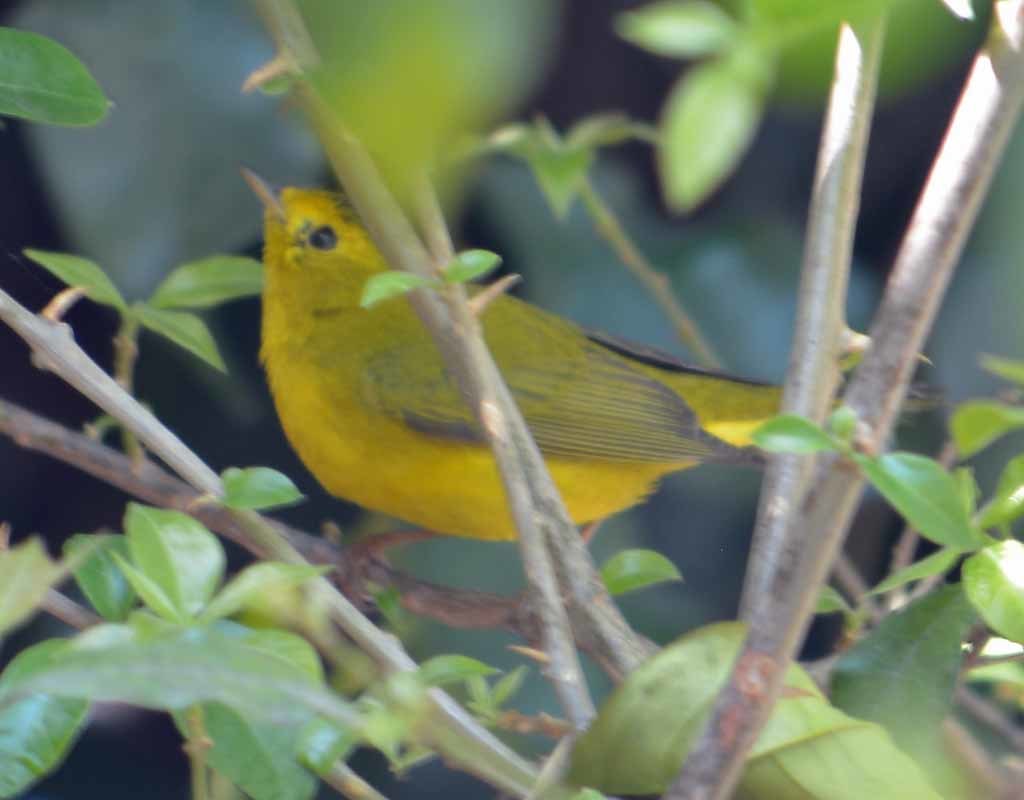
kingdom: Animalia
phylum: Chordata
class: Aves
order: Passeriformes
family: Parulidae
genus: Cardellina
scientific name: Cardellina pusilla
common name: Wilson's warbler
